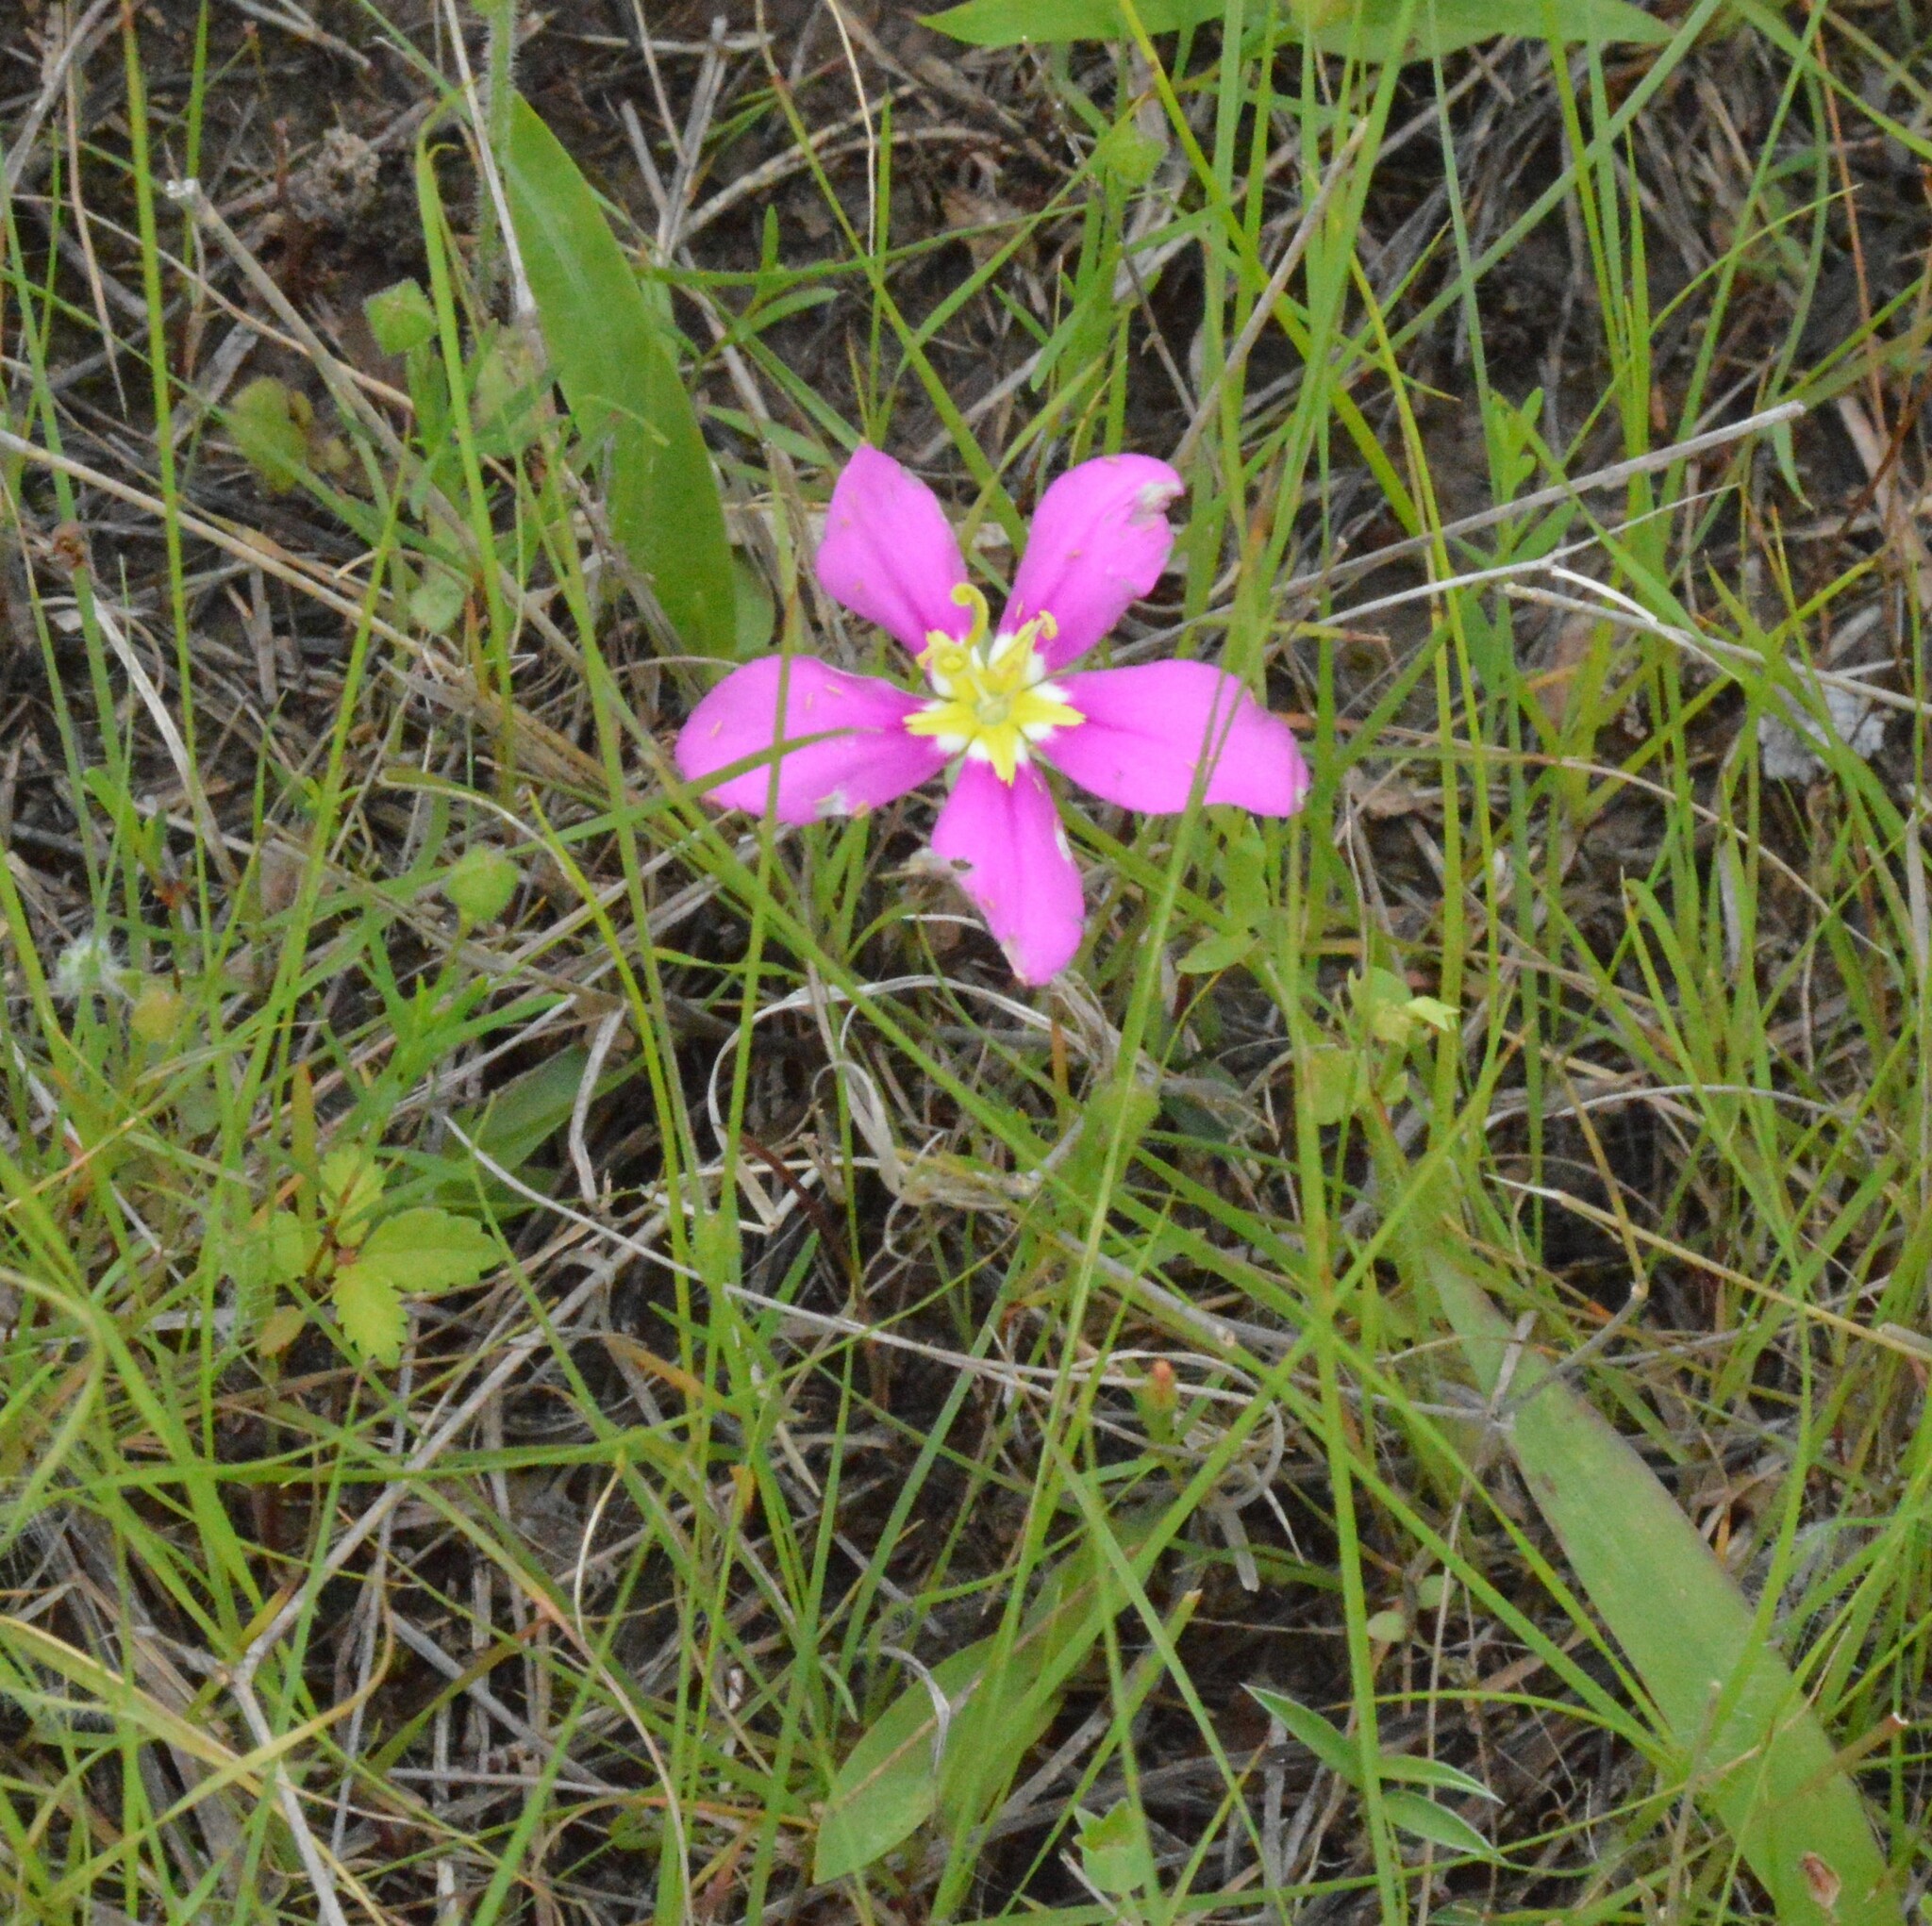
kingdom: Plantae
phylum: Tracheophyta
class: Magnoliopsida
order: Gentianales
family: Gentianaceae
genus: Sabatia
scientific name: Sabatia campestris
